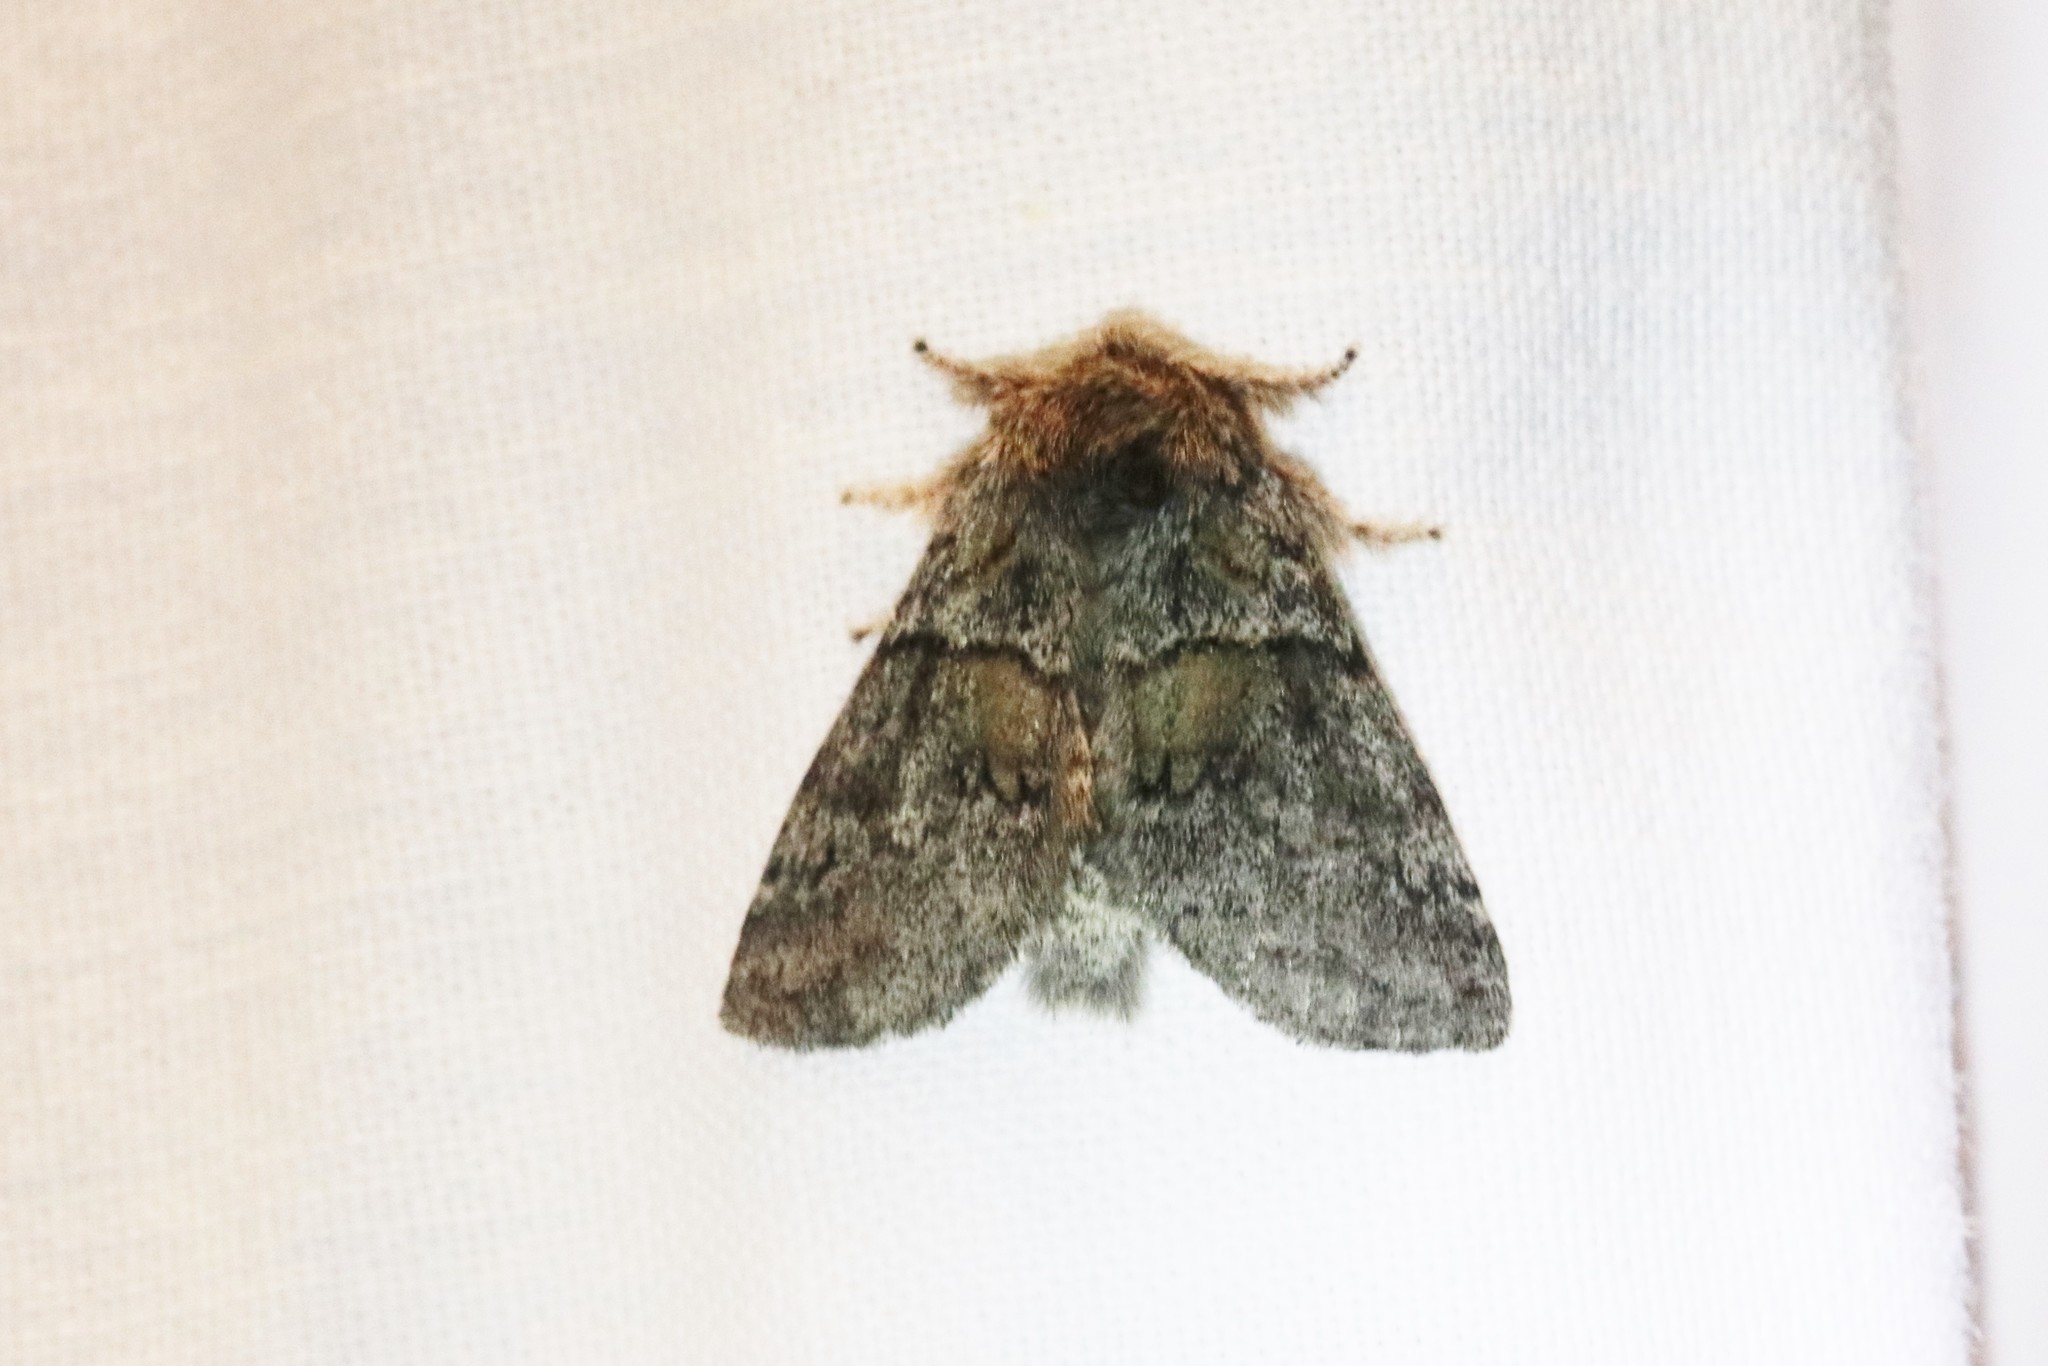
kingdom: Animalia
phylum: Arthropoda
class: Insecta
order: Lepidoptera
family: Notodontidae
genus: Gluphisia
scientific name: Gluphisia septentrionis
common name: Common gluphisia
